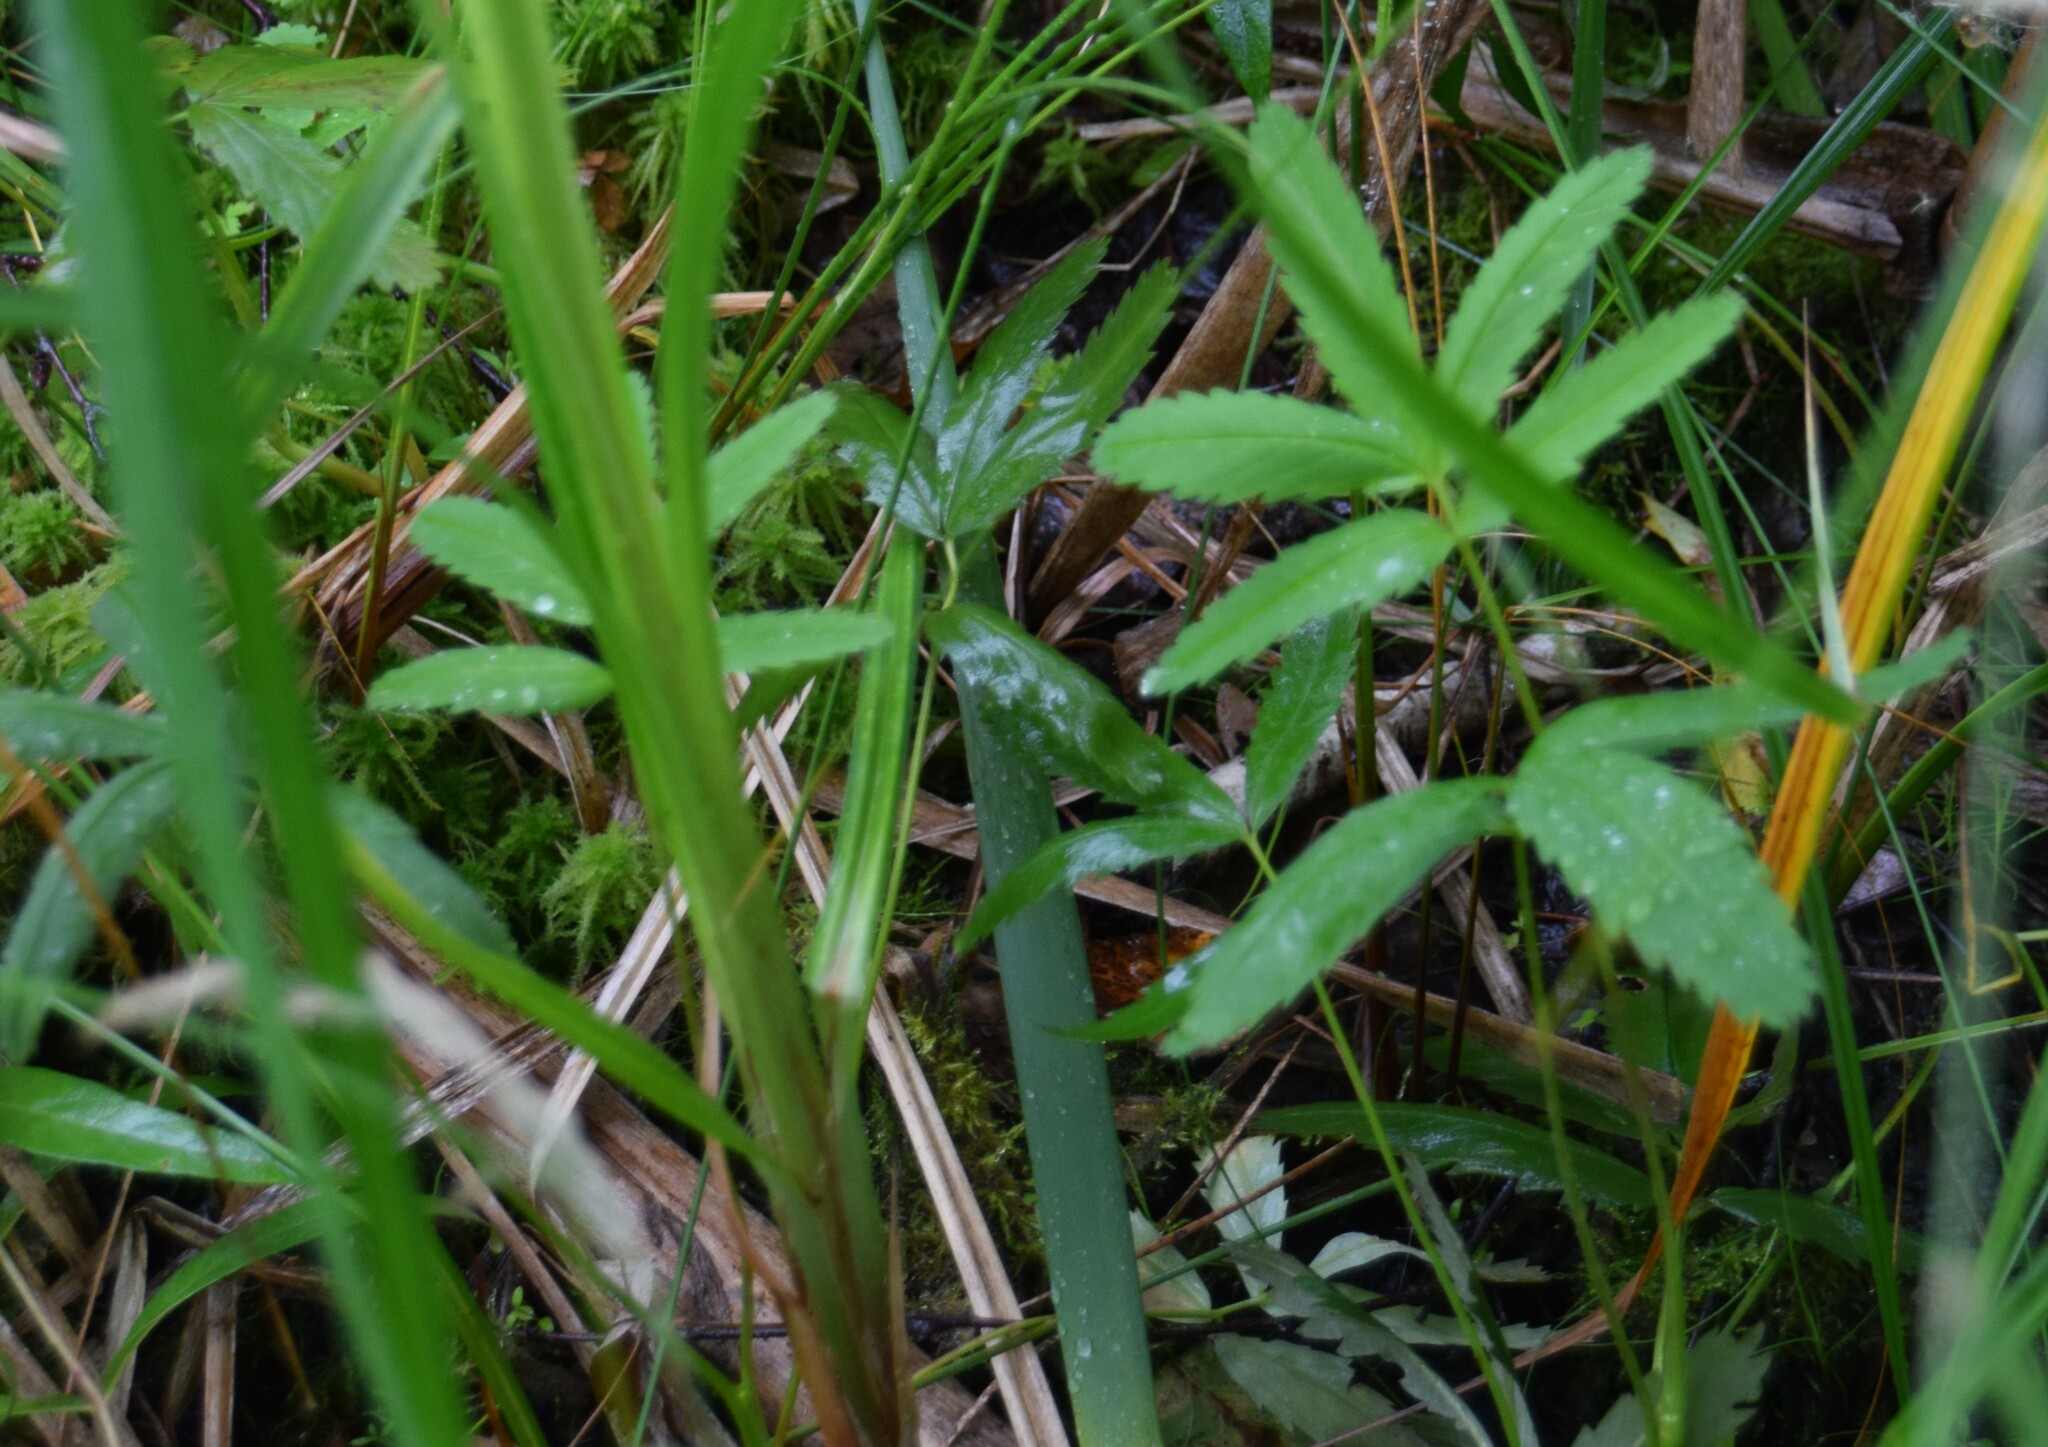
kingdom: Plantae
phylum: Tracheophyta
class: Magnoliopsida
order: Rosales
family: Rosaceae
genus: Comarum
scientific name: Comarum palustre
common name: Marsh cinquefoil
